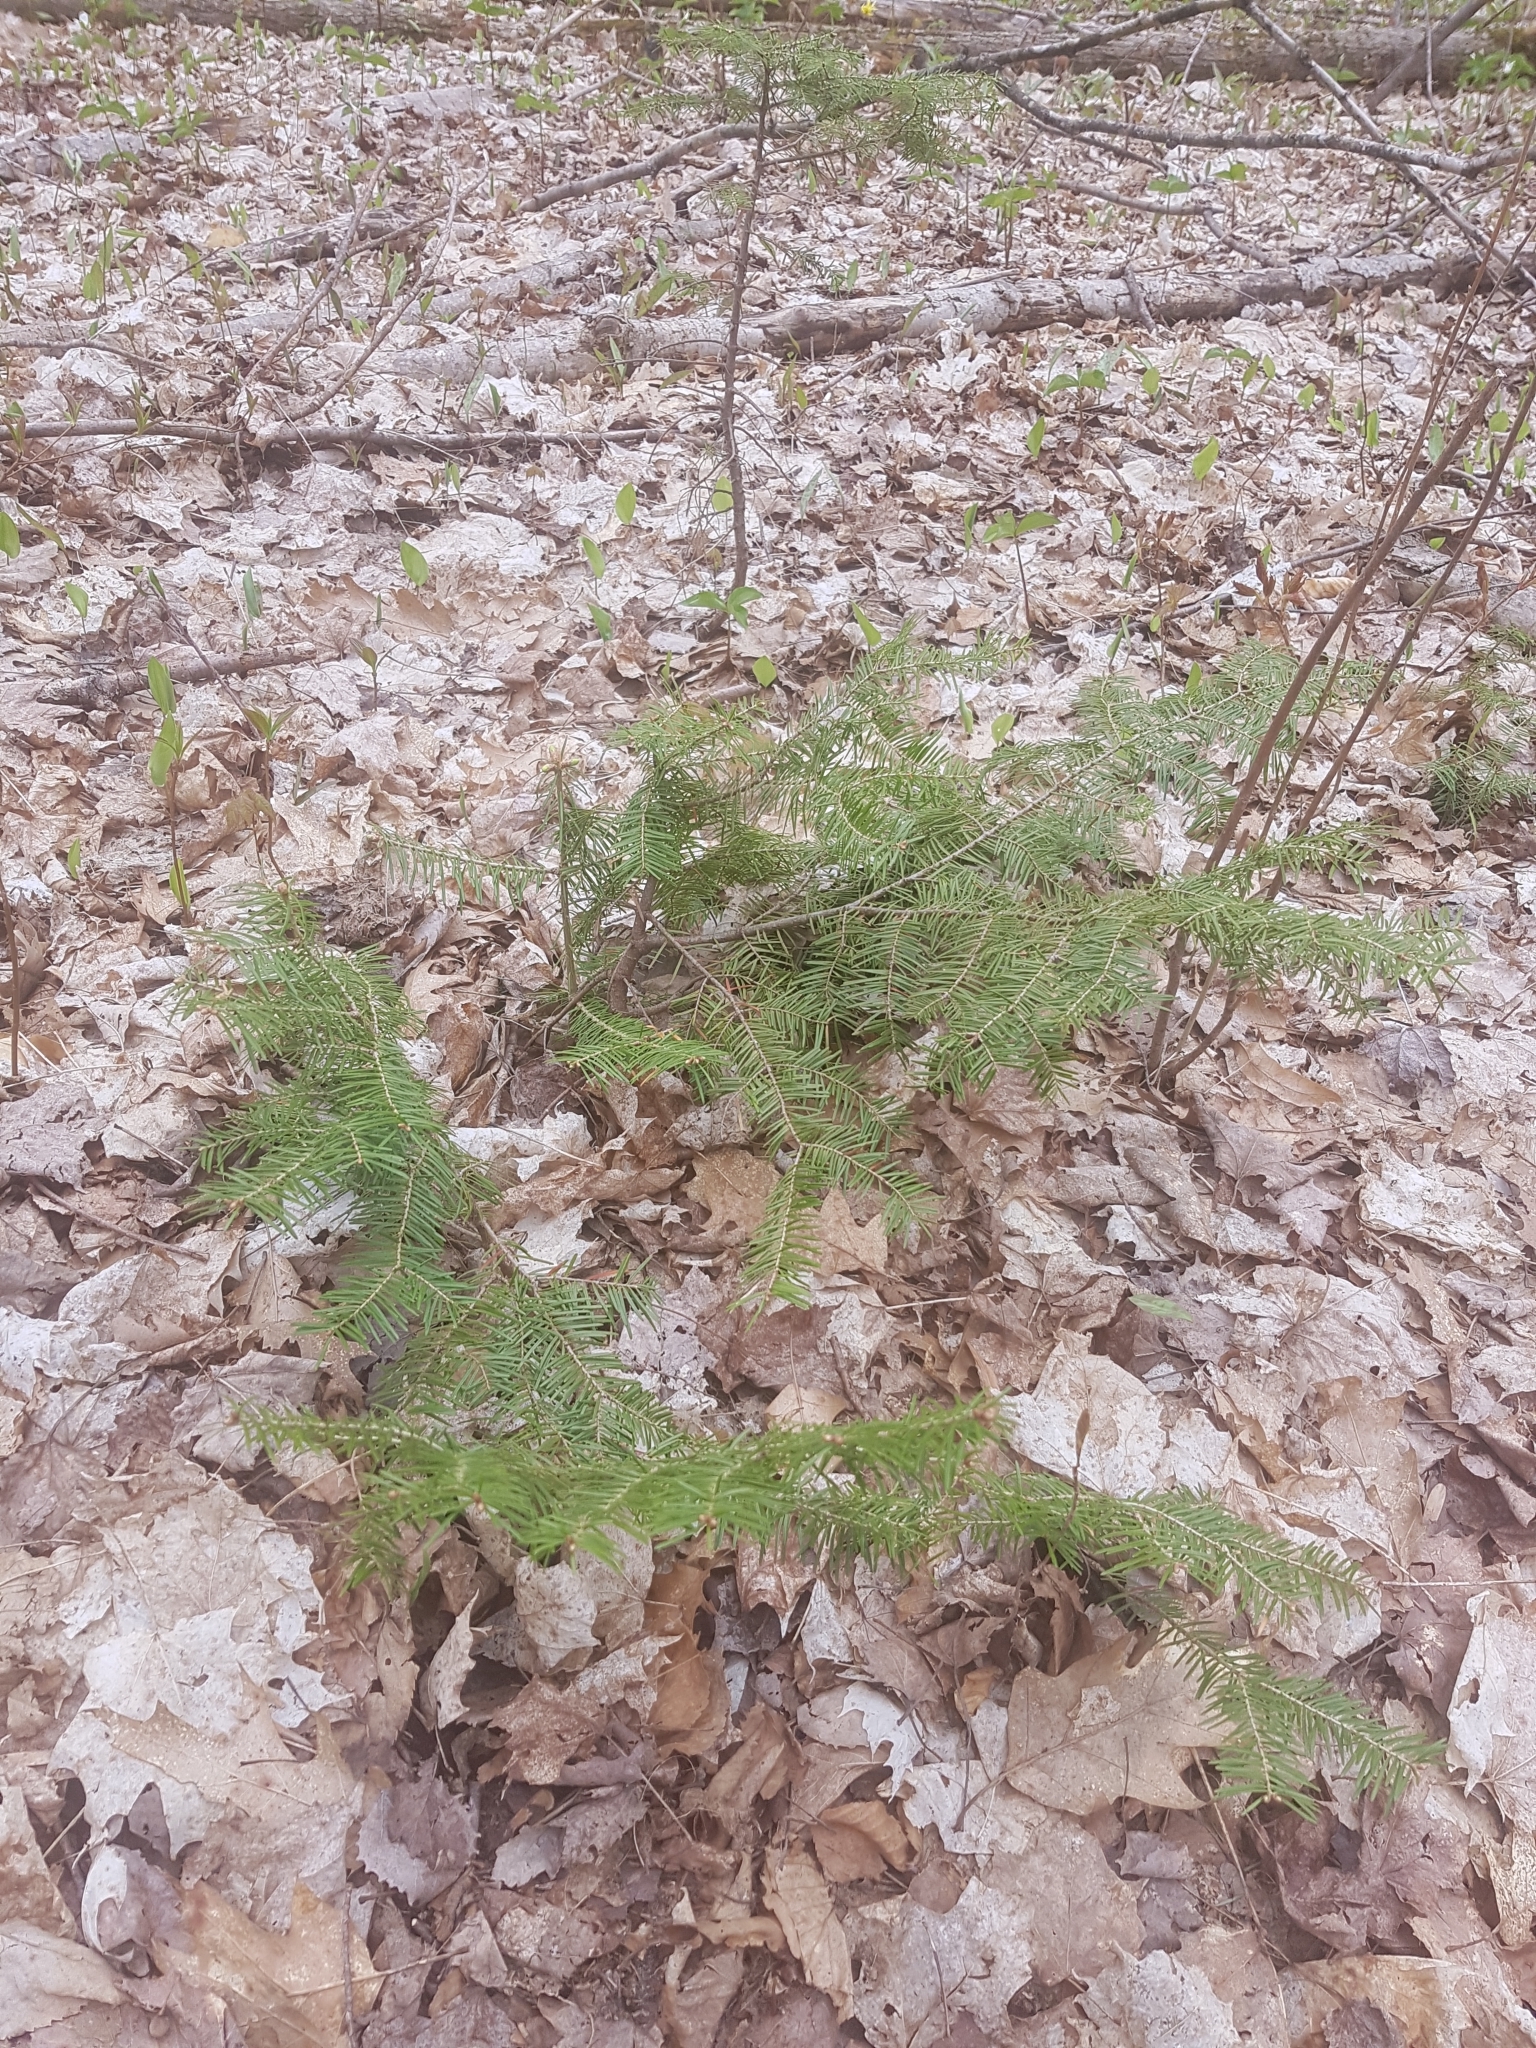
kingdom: Plantae
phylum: Tracheophyta
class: Pinopsida
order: Pinales
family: Pinaceae
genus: Abies
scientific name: Abies balsamea
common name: Balsam fir
